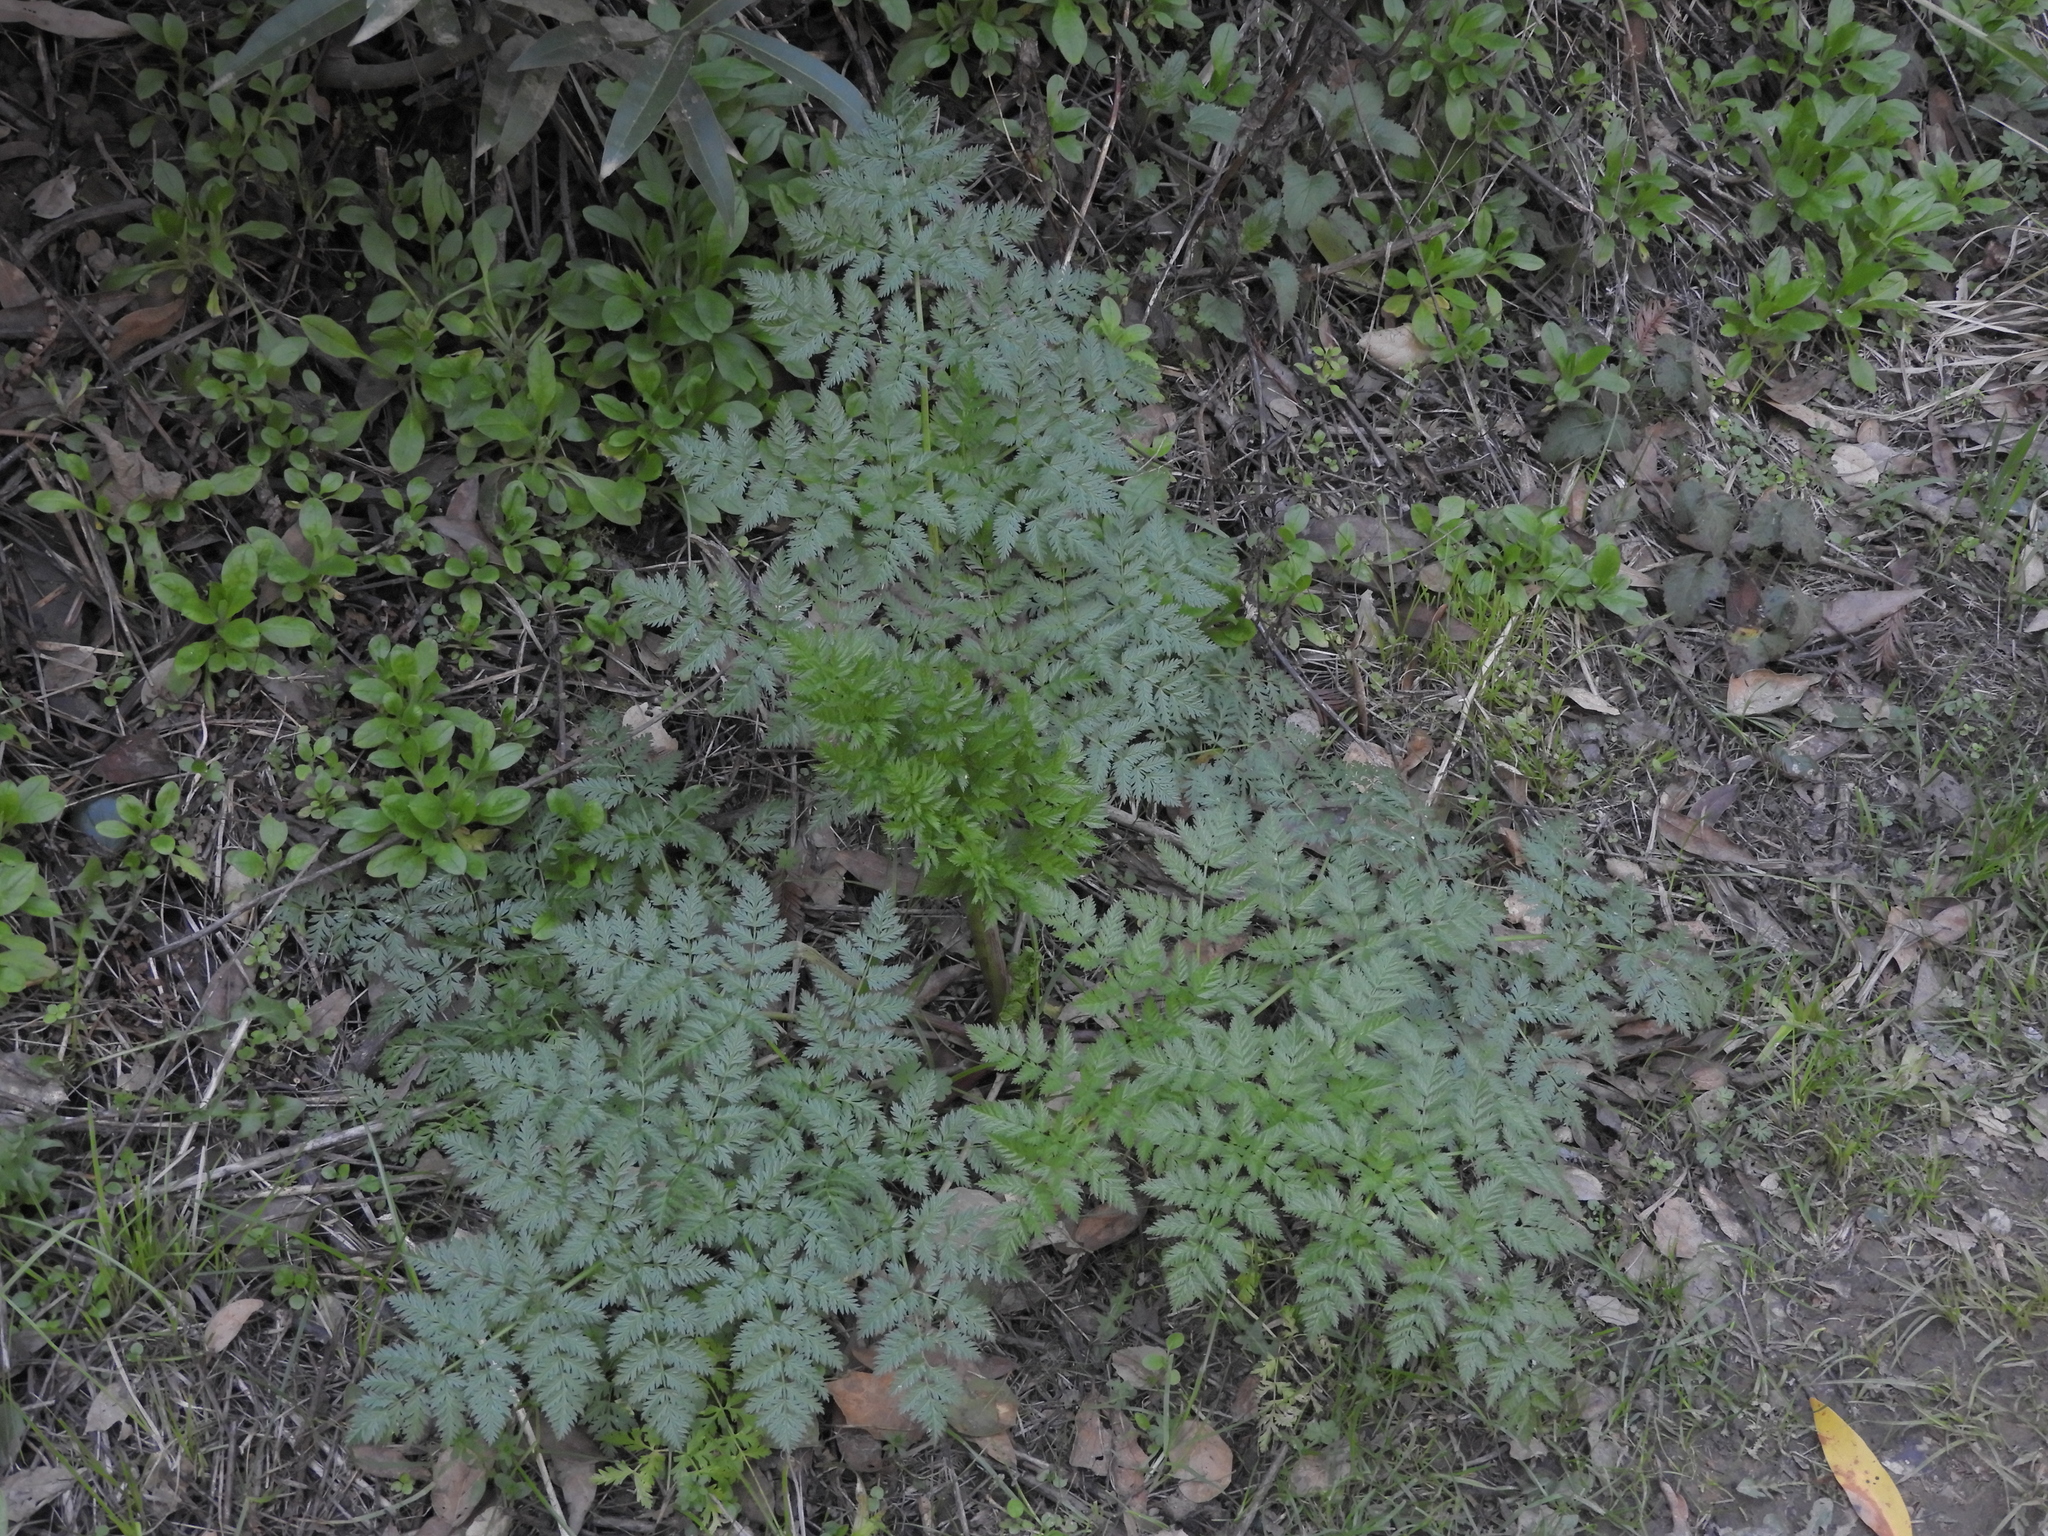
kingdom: Plantae
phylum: Tracheophyta
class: Magnoliopsida
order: Apiales
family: Apiaceae
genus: Conium
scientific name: Conium maculatum
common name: Hemlock
